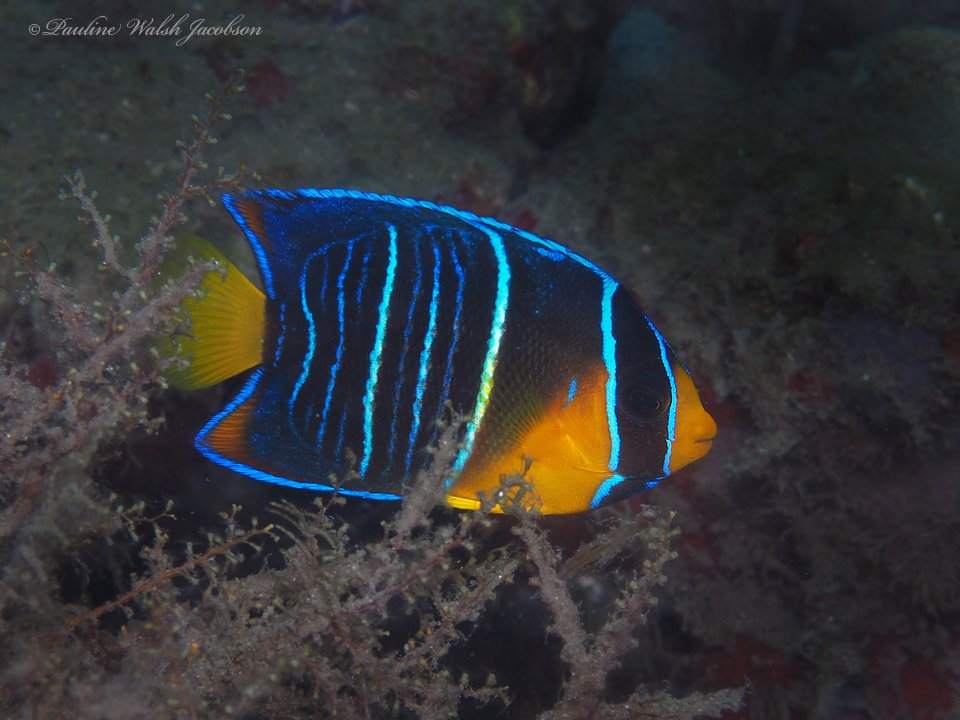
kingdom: Animalia
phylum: Chordata
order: Perciformes
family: Pomacanthidae
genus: Holacanthus
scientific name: Holacanthus bermudensis
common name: Blue angelfish
